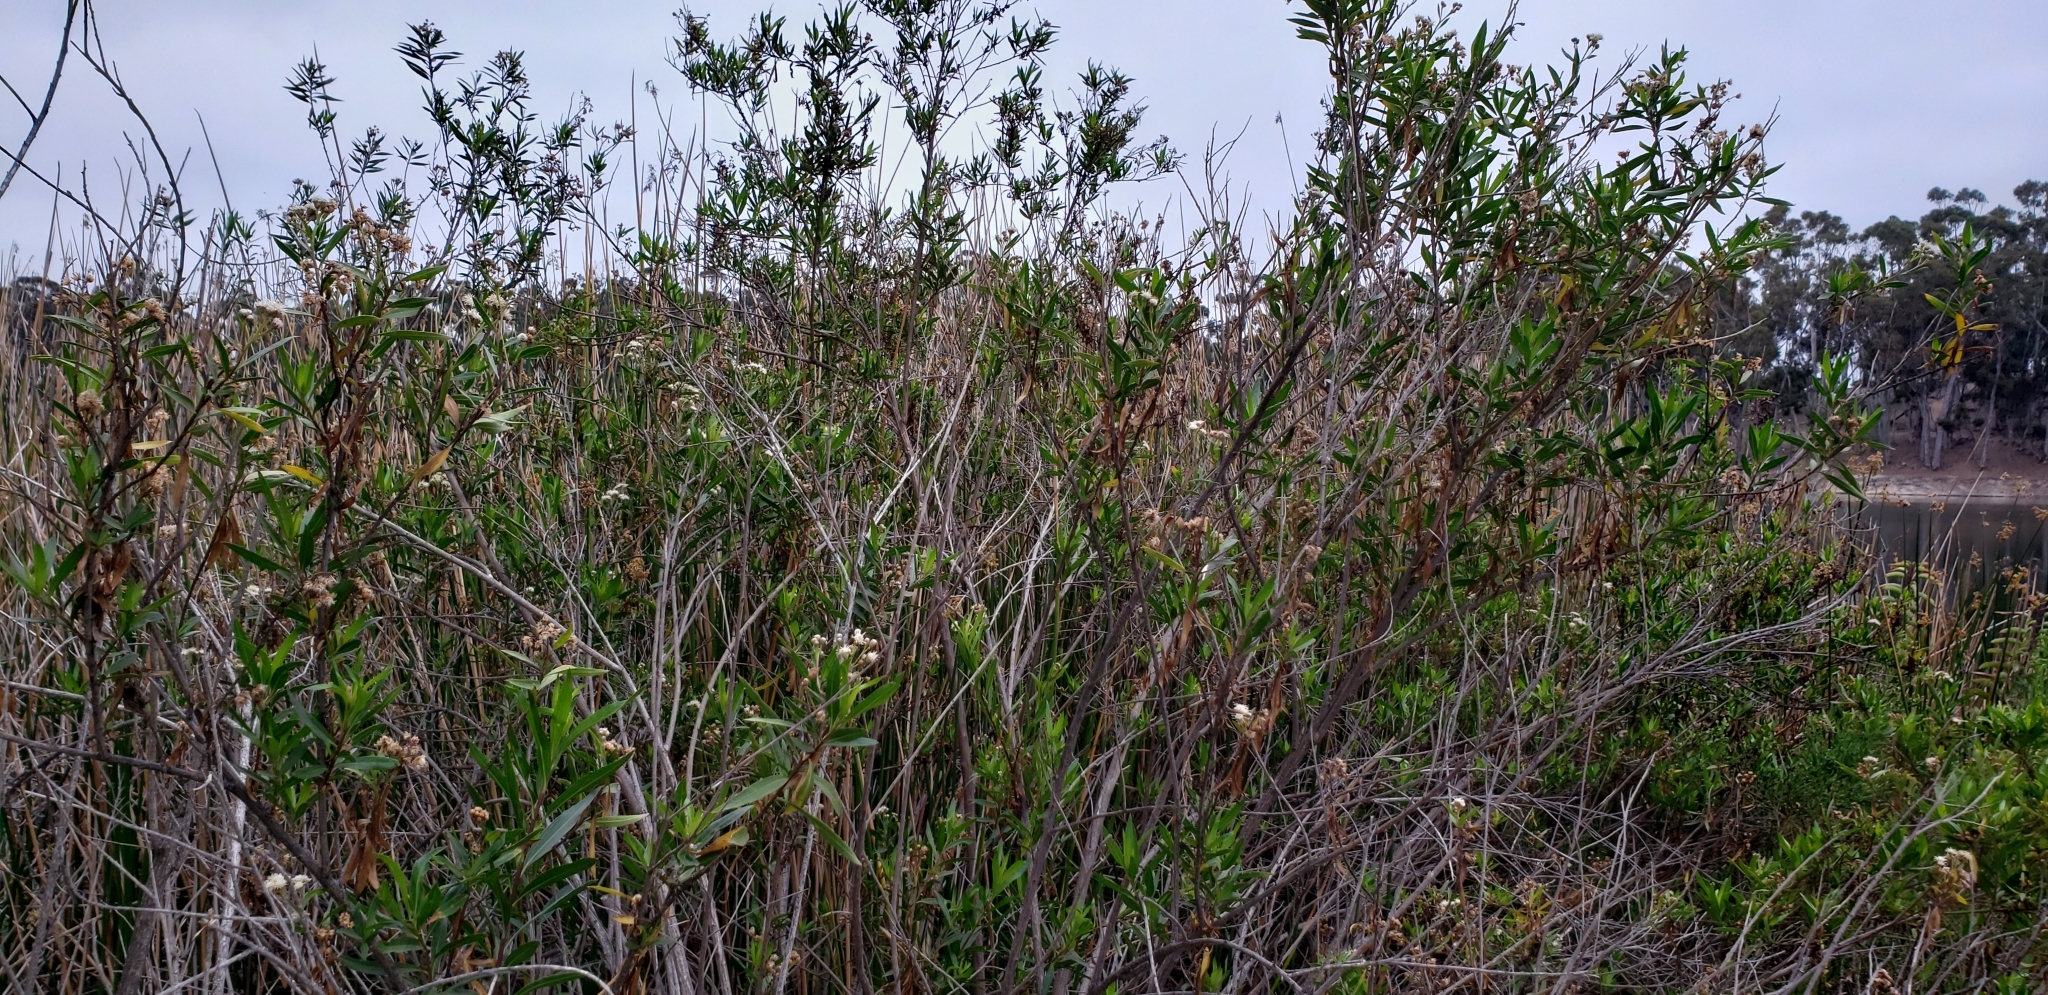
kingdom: Plantae
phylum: Tracheophyta
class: Magnoliopsida
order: Asterales
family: Asteraceae
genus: Baccharis
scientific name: Baccharis salicifolia
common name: Sticky baccharis
